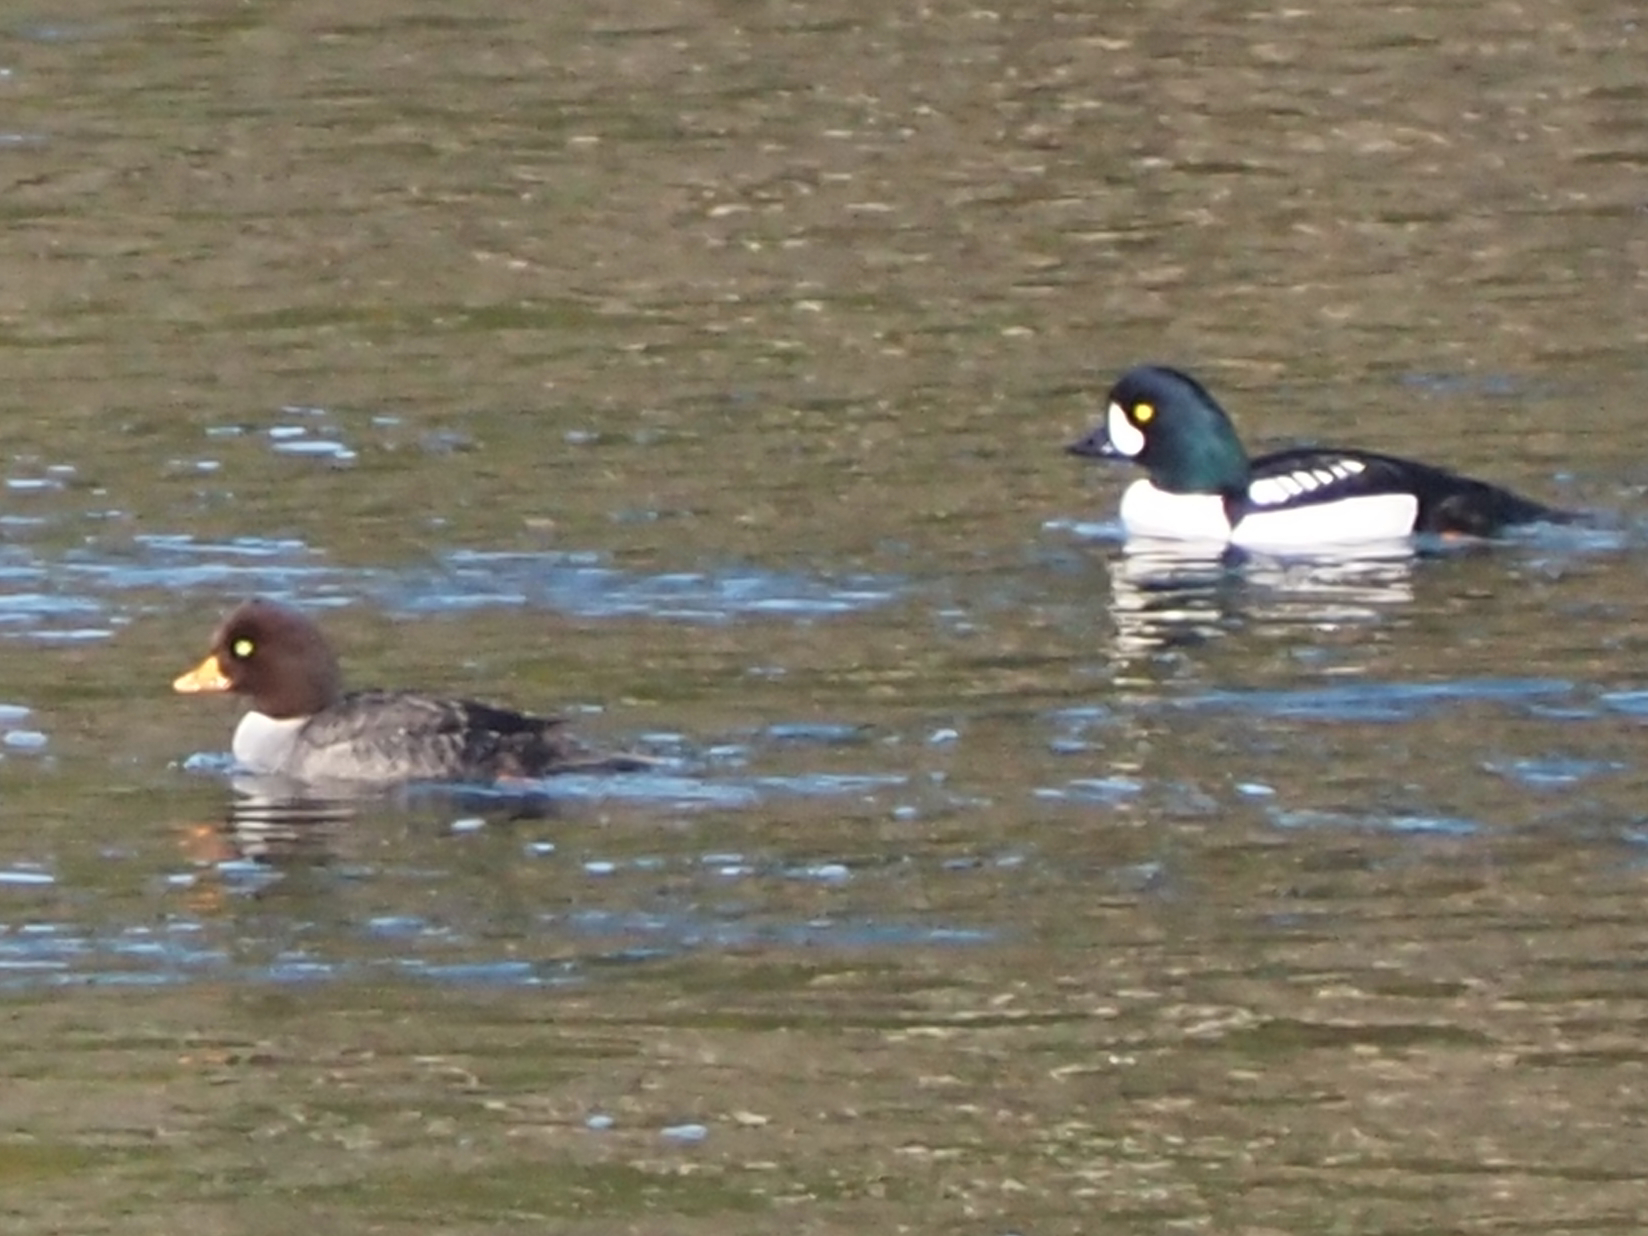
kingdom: Animalia
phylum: Chordata
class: Aves
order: Anseriformes
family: Anatidae
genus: Bucephala
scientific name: Bucephala islandica
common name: Barrow's goldeneye
